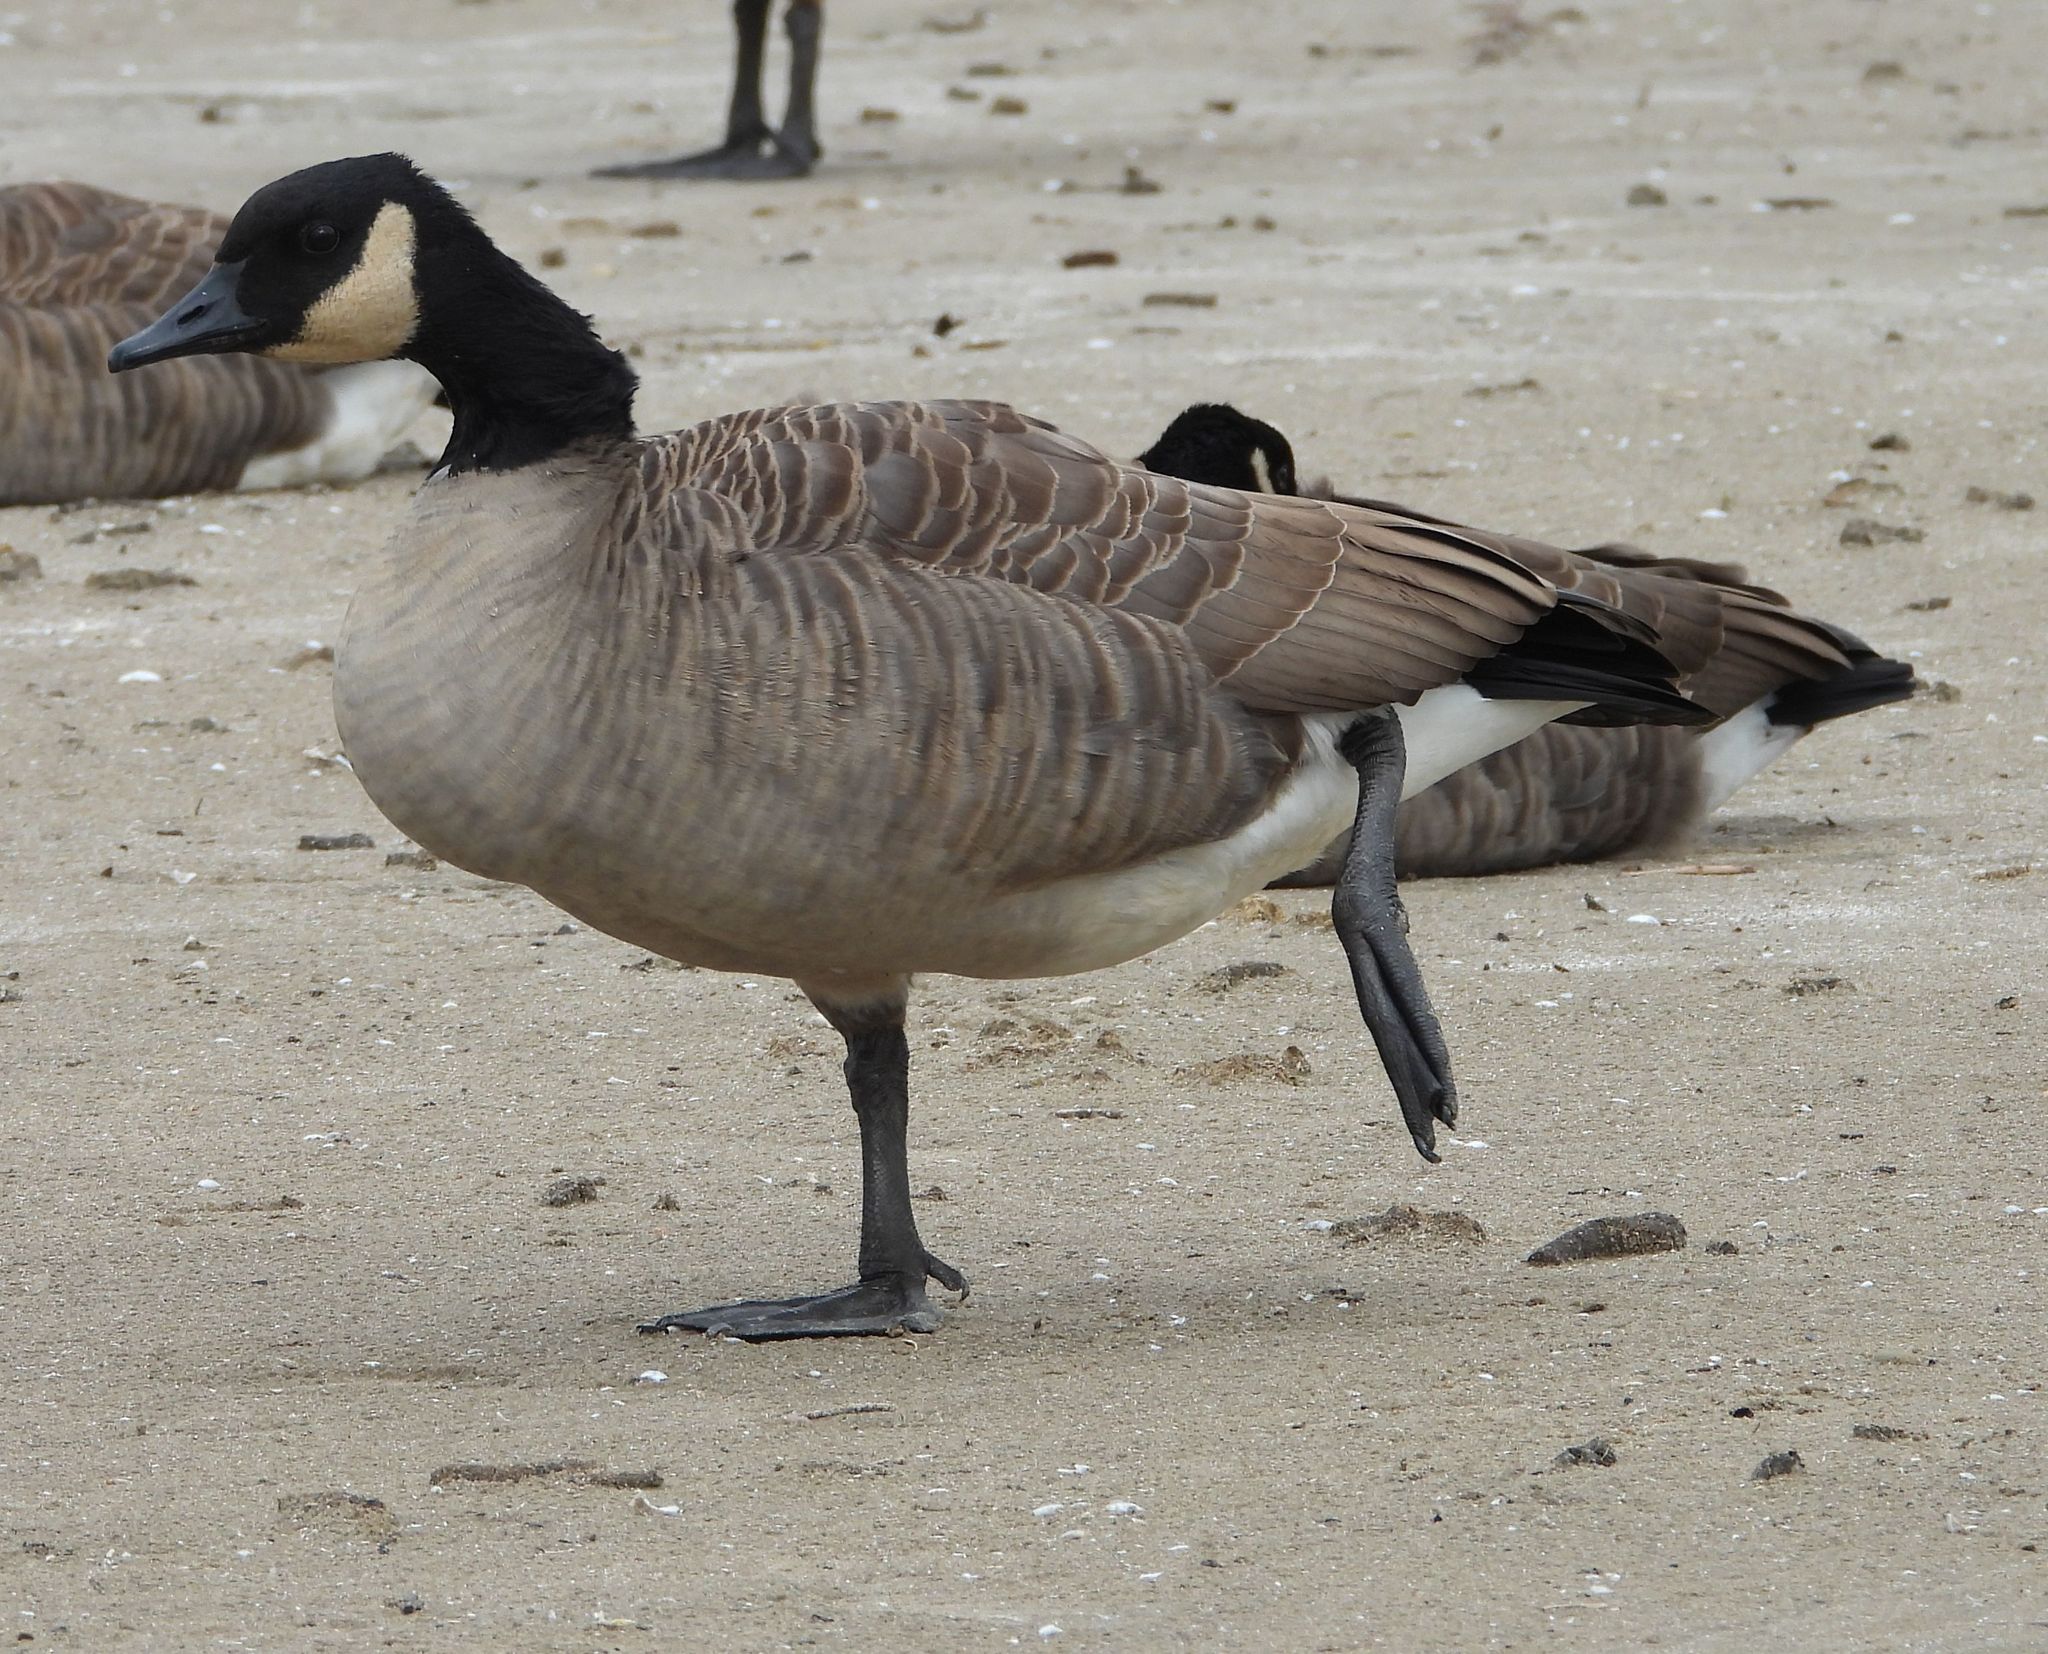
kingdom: Animalia
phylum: Chordata
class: Aves
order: Anseriformes
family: Anatidae
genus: Branta
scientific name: Branta canadensis
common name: Canada goose
